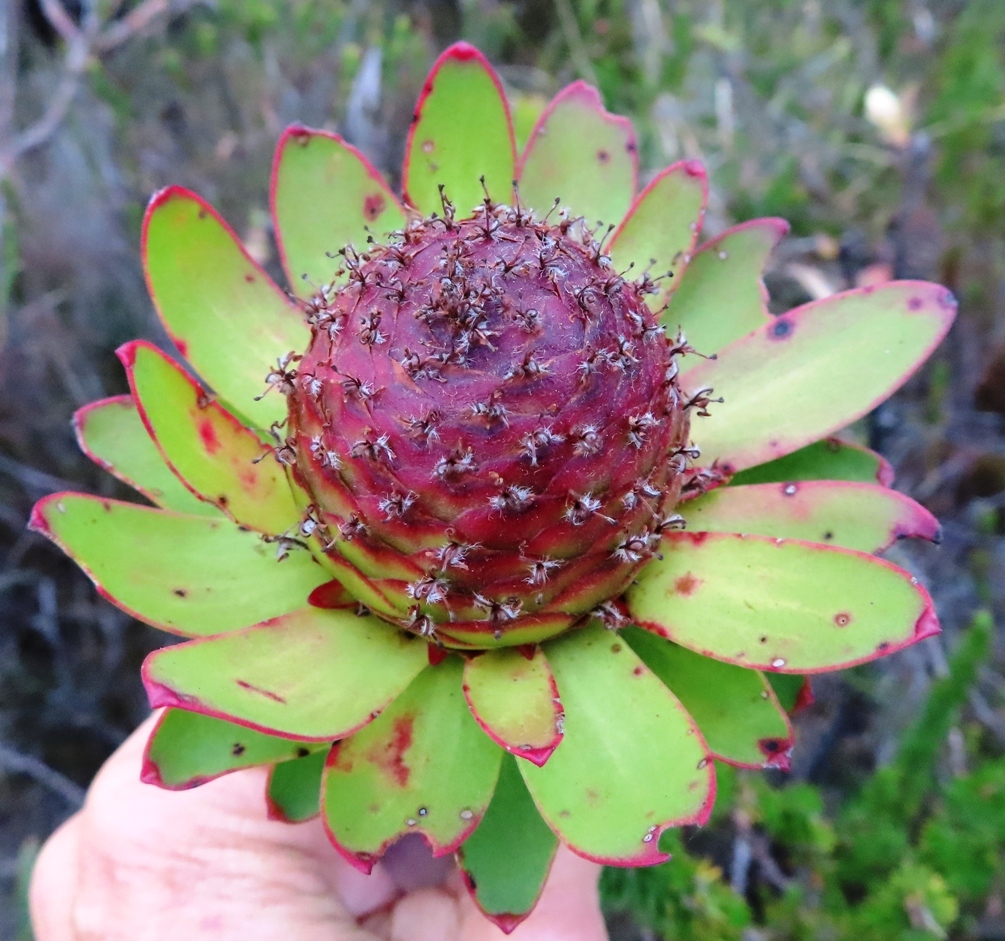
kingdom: Plantae
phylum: Tracheophyta
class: Magnoliopsida
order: Proteales
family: Proteaceae
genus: Leucadendron
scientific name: Leucadendron elimense
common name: Elim conebush
